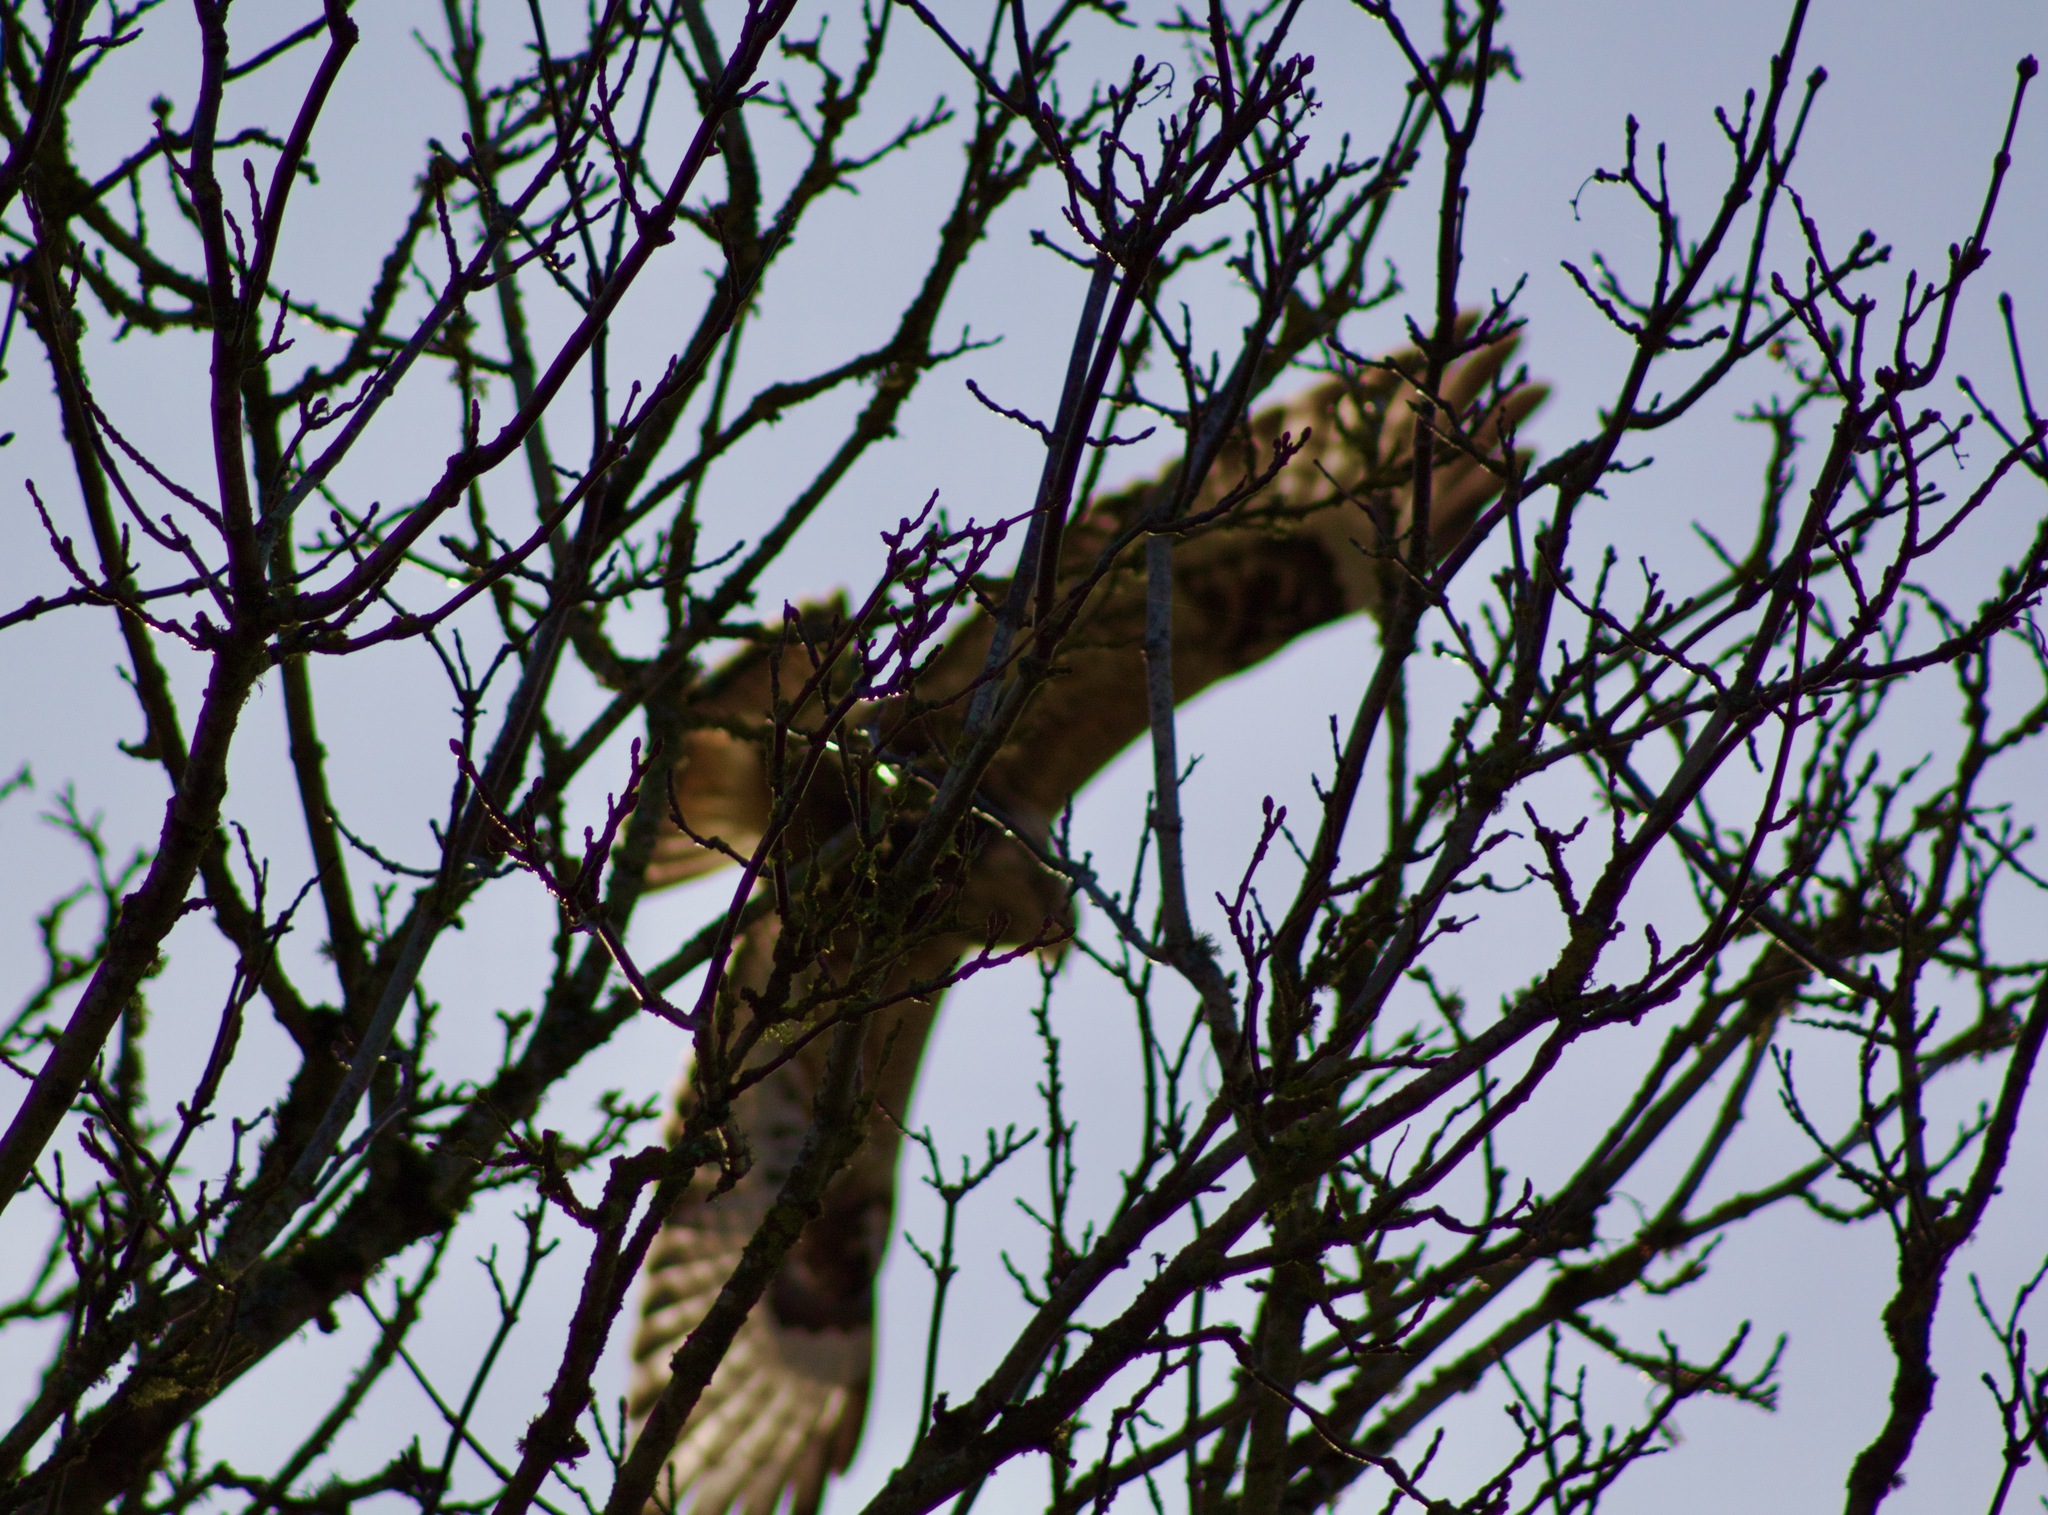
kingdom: Animalia
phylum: Chordata
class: Aves
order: Accipitriformes
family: Accipitridae
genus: Buteo
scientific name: Buteo lagopus
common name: Rough-legged buzzard
